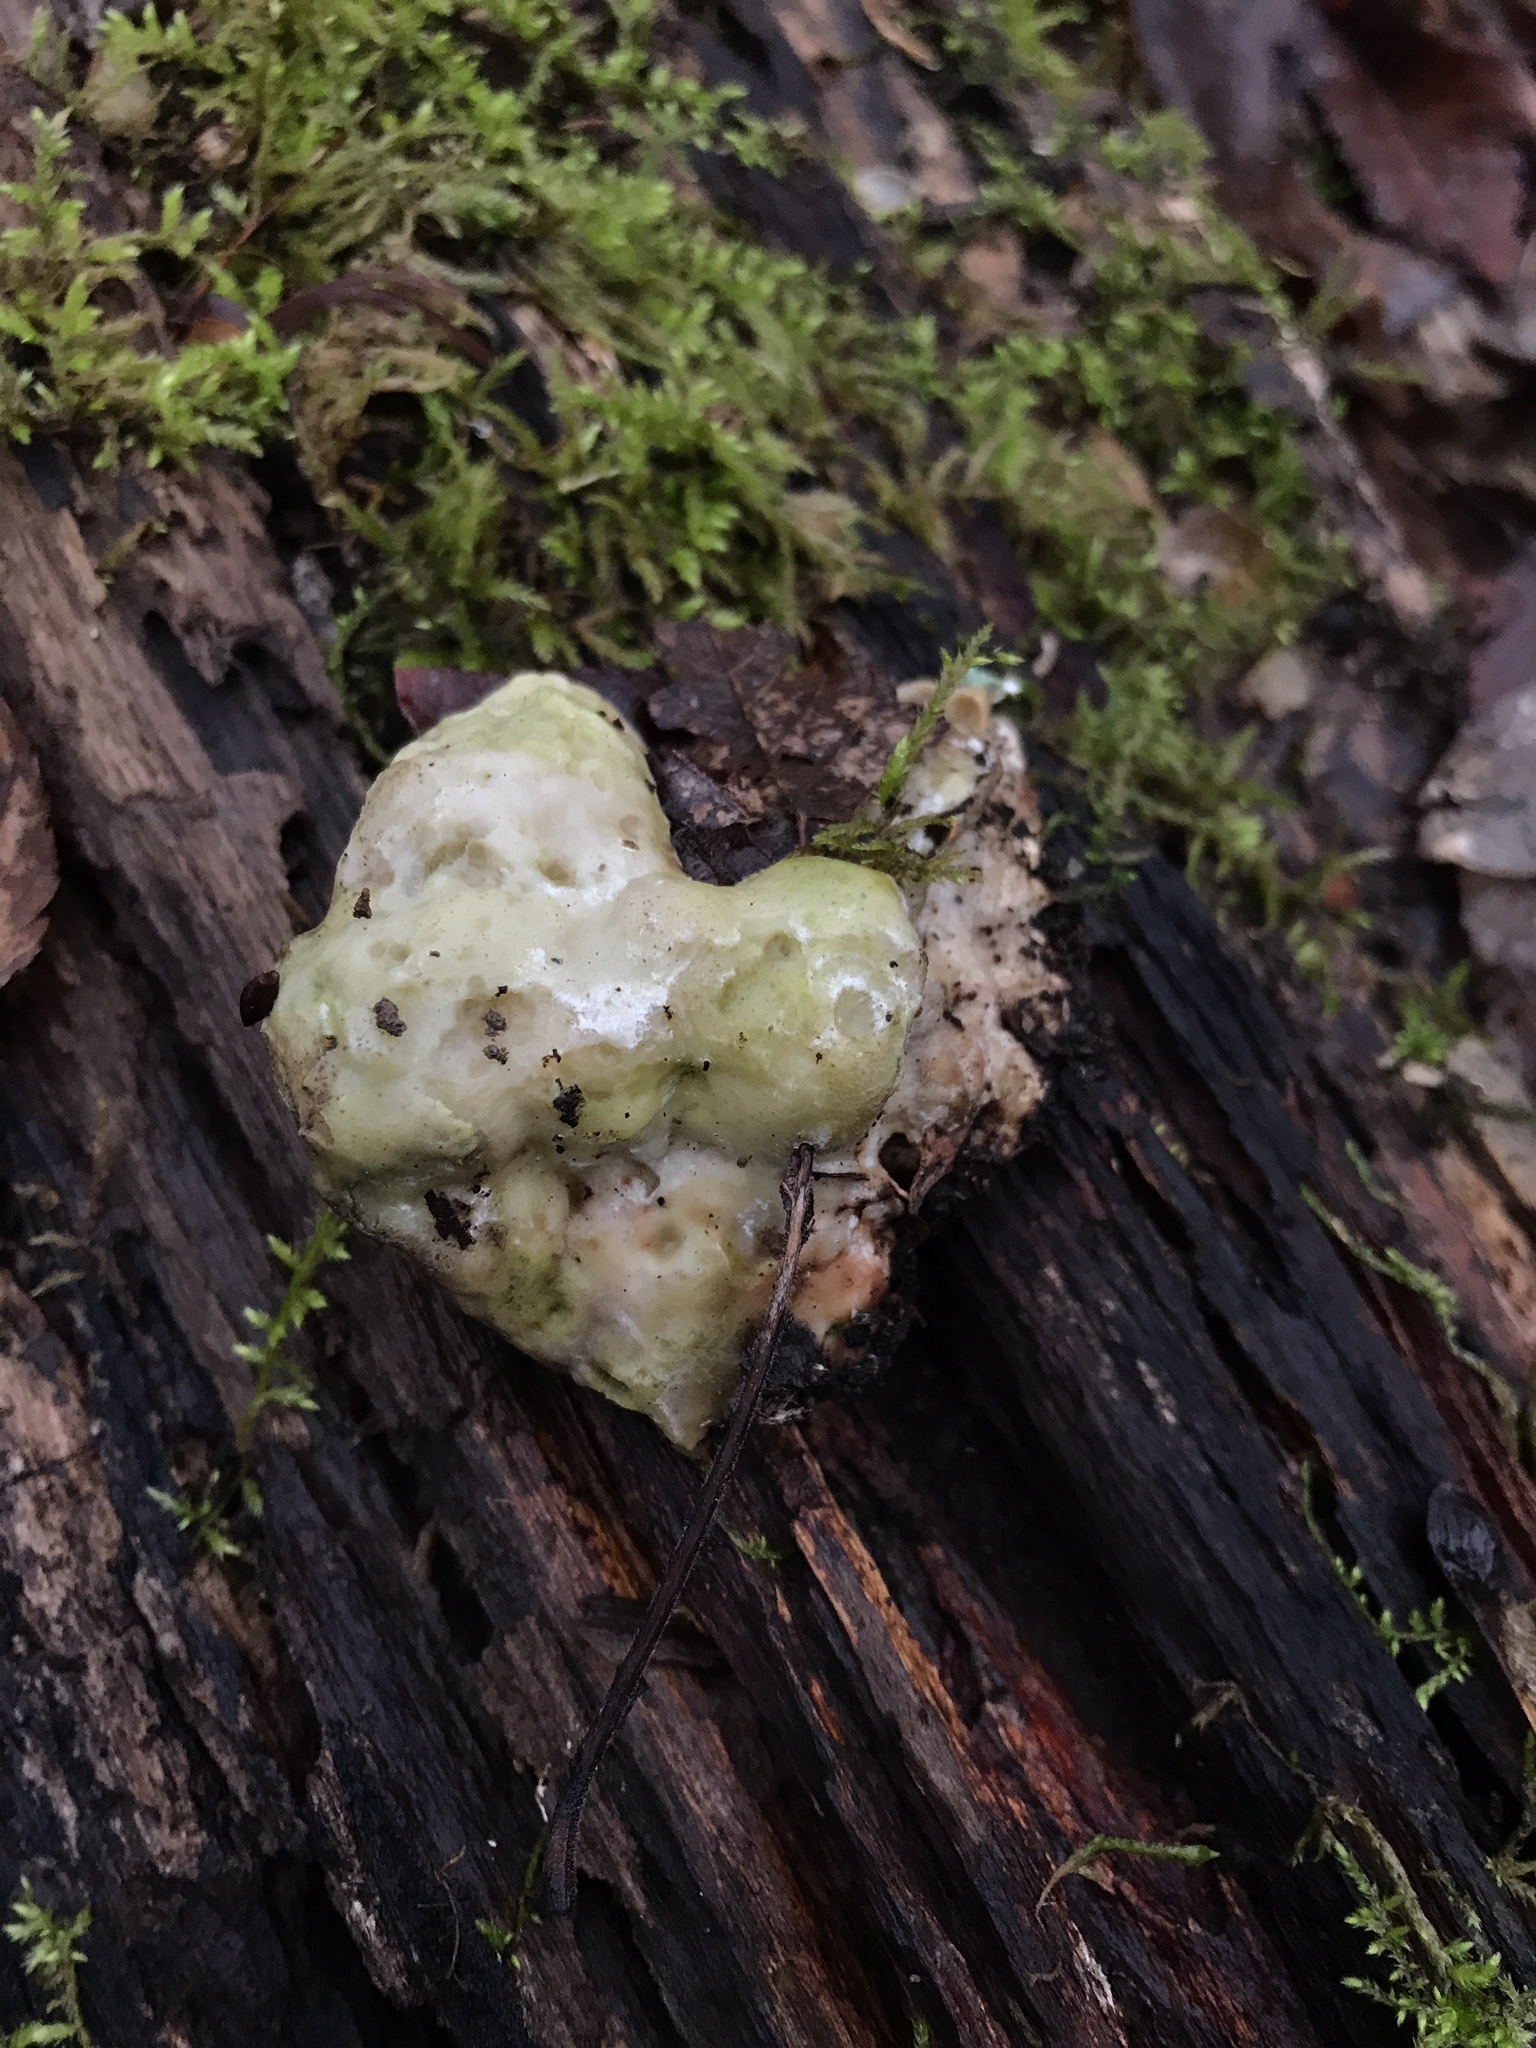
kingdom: Fungi
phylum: Basidiomycota
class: Agaricomycetes
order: Polyporales
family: Fomitopsidaceae
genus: Niveoporofomes
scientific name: Niveoporofomes spraguei
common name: Green cheese polypore
